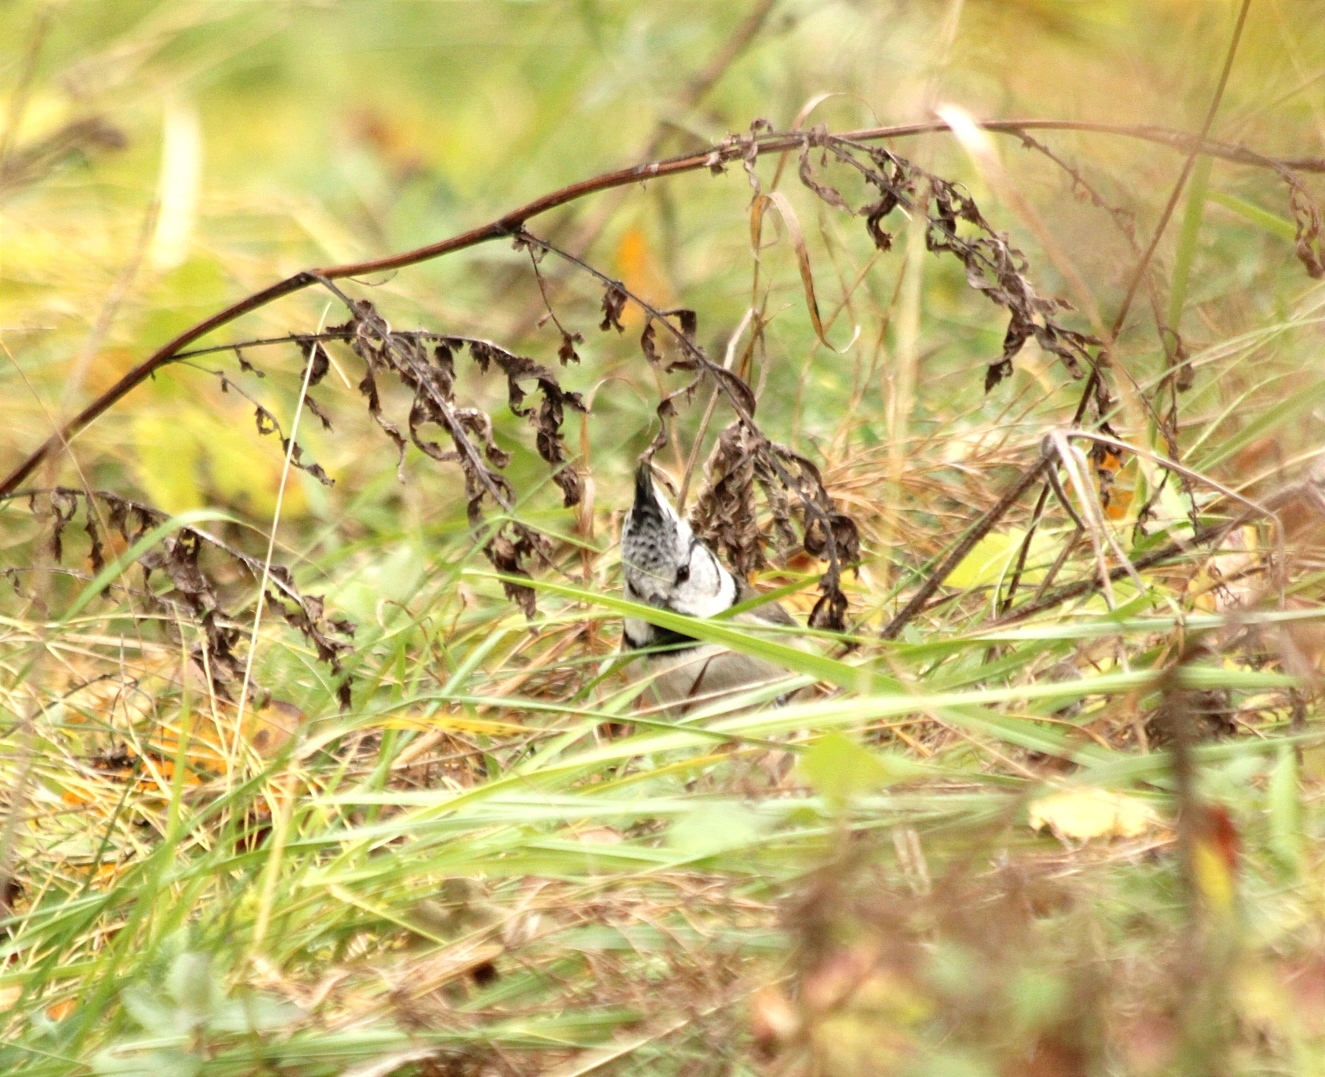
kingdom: Animalia
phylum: Chordata
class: Aves
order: Passeriformes
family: Paridae
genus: Lophophanes
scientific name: Lophophanes cristatus
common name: European crested tit
